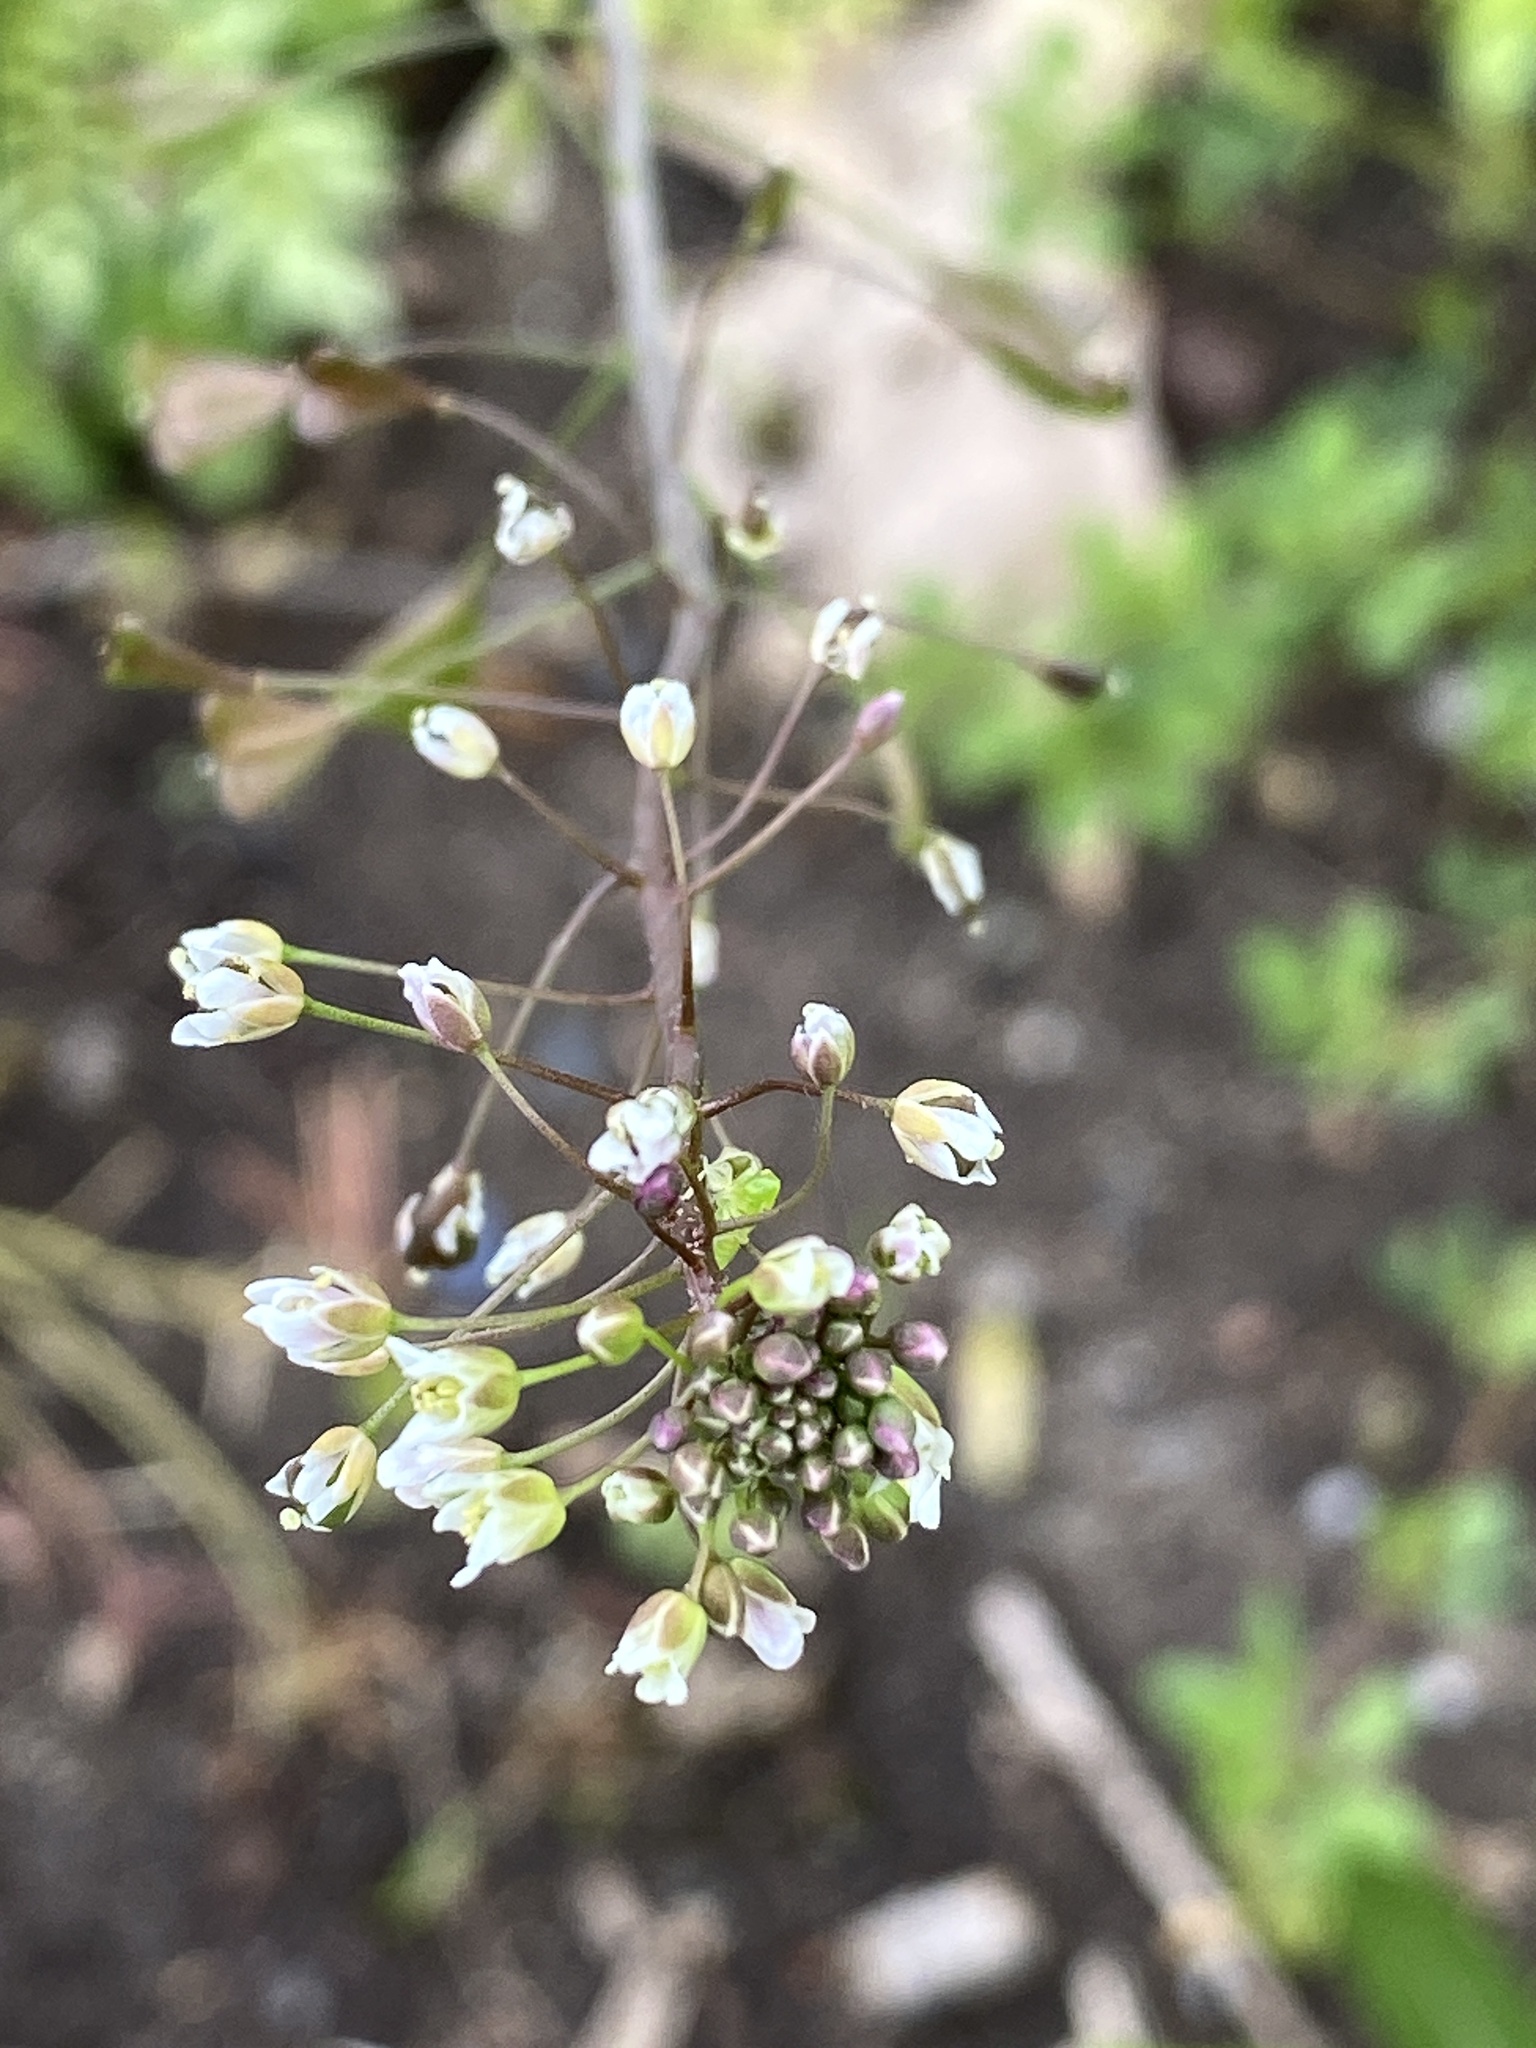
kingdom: Plantae
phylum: Tracheophyta
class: Magnoliopsida
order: Brassicales
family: Brassicaceae
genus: Capsella
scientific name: Capsella bursa-pastoris
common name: Shepherd's purse
